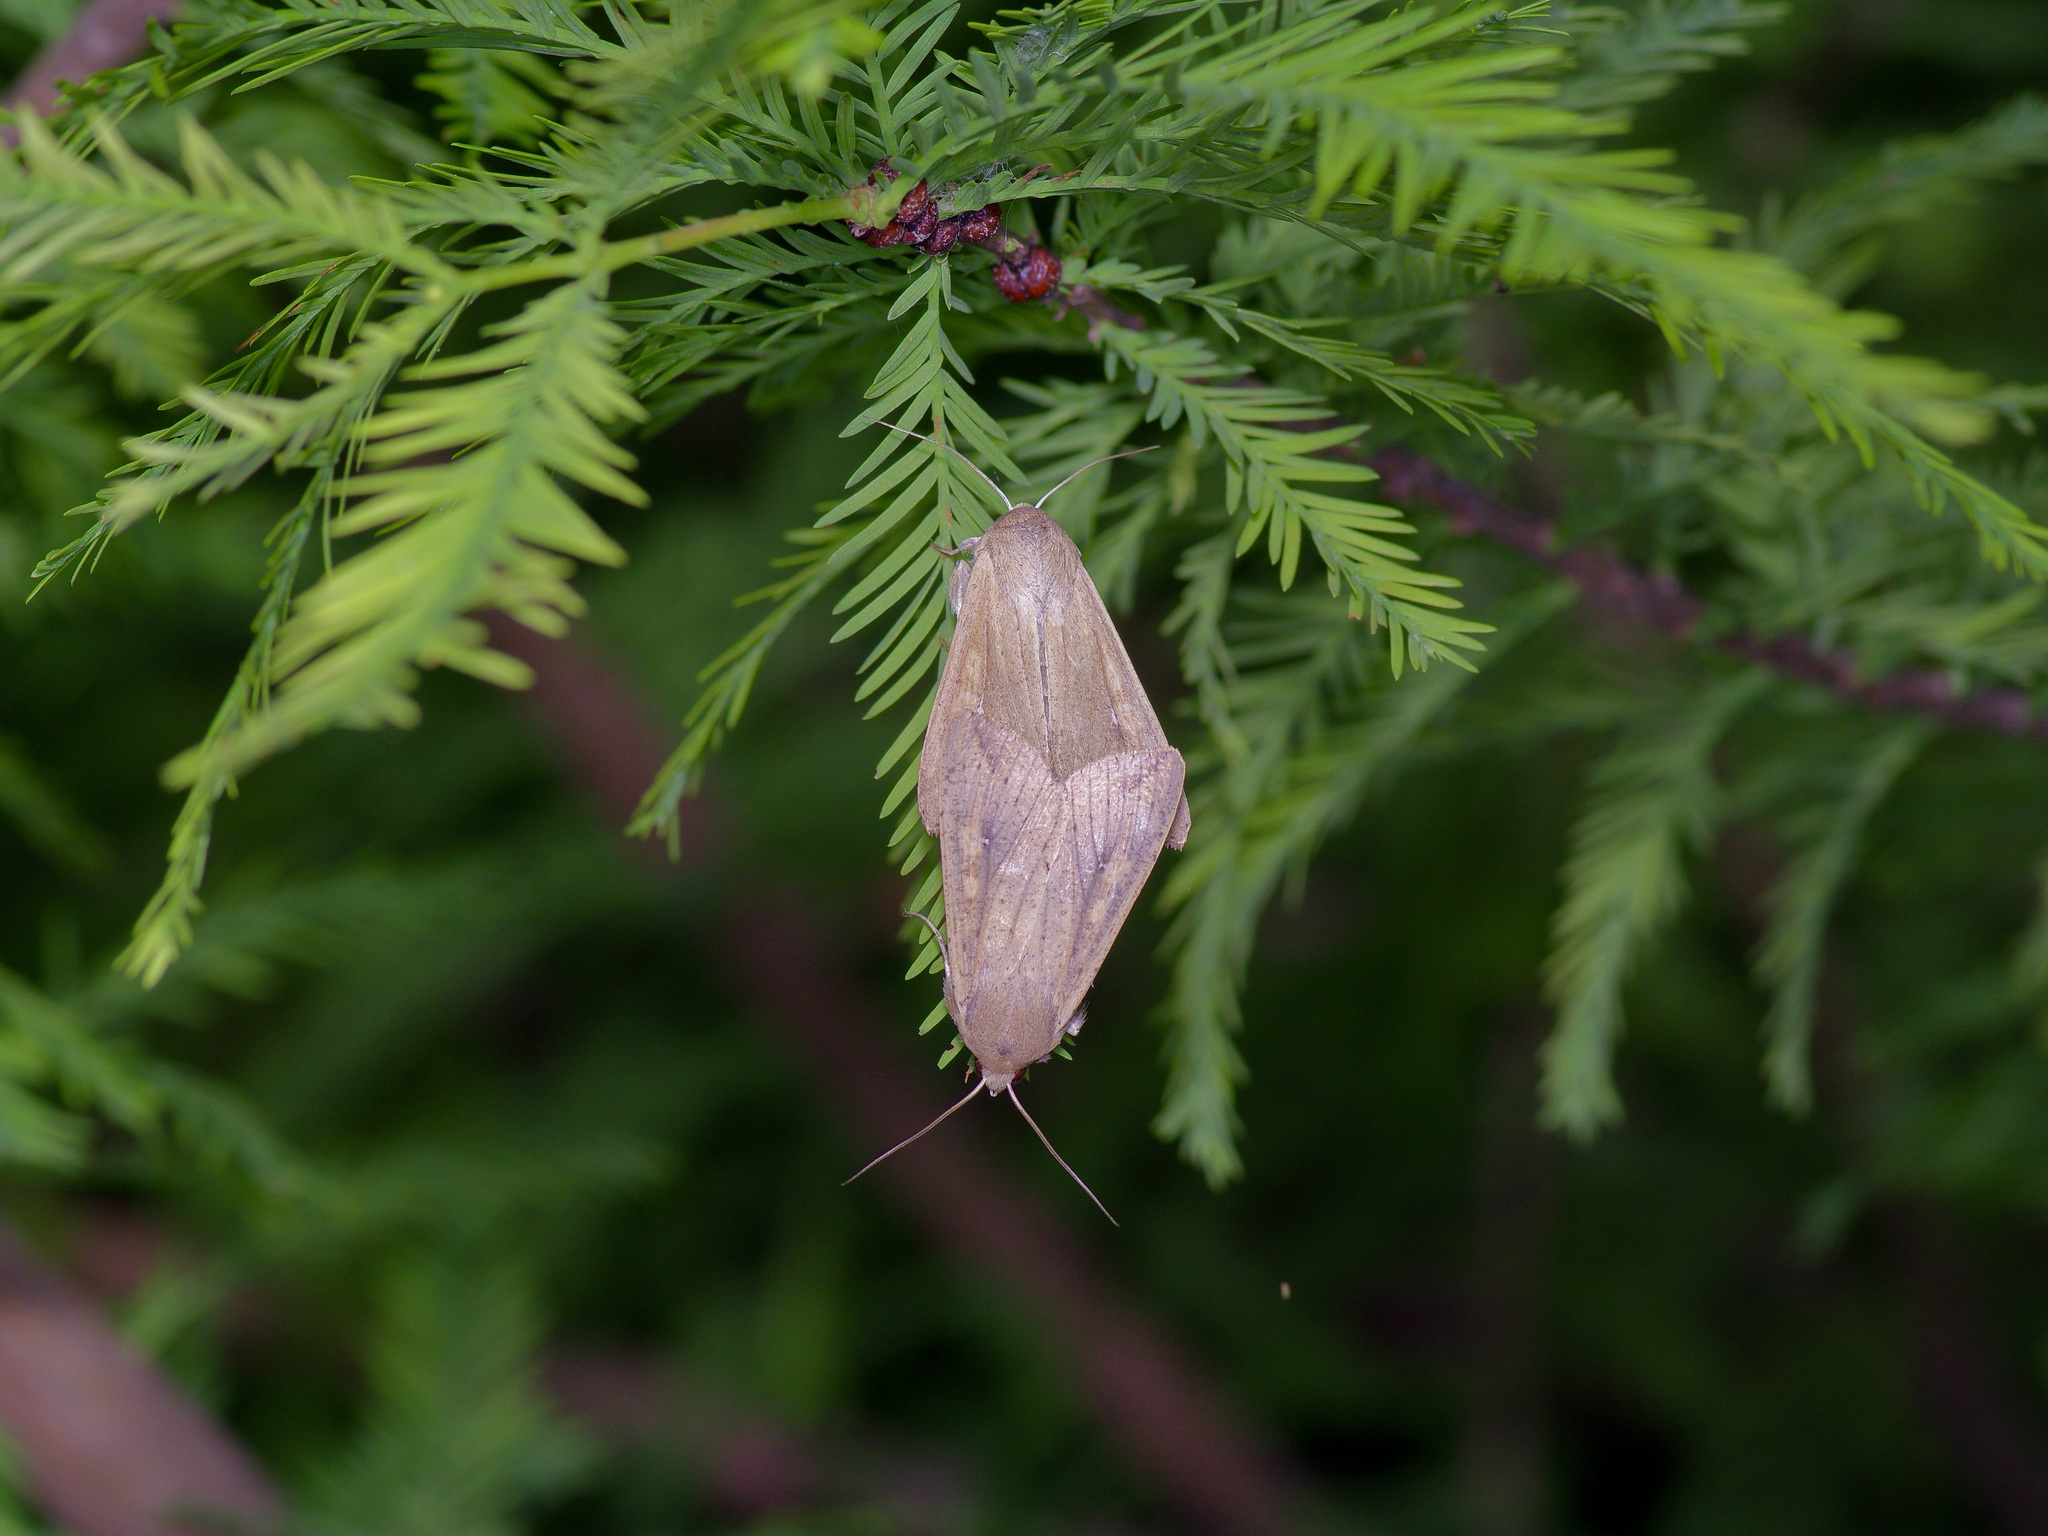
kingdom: Animalia
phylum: Arthropoda
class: Insecta
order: Lepidoptera
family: Noctuidae
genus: Mythimna
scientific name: Mythimna unipuncta
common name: White-speck
